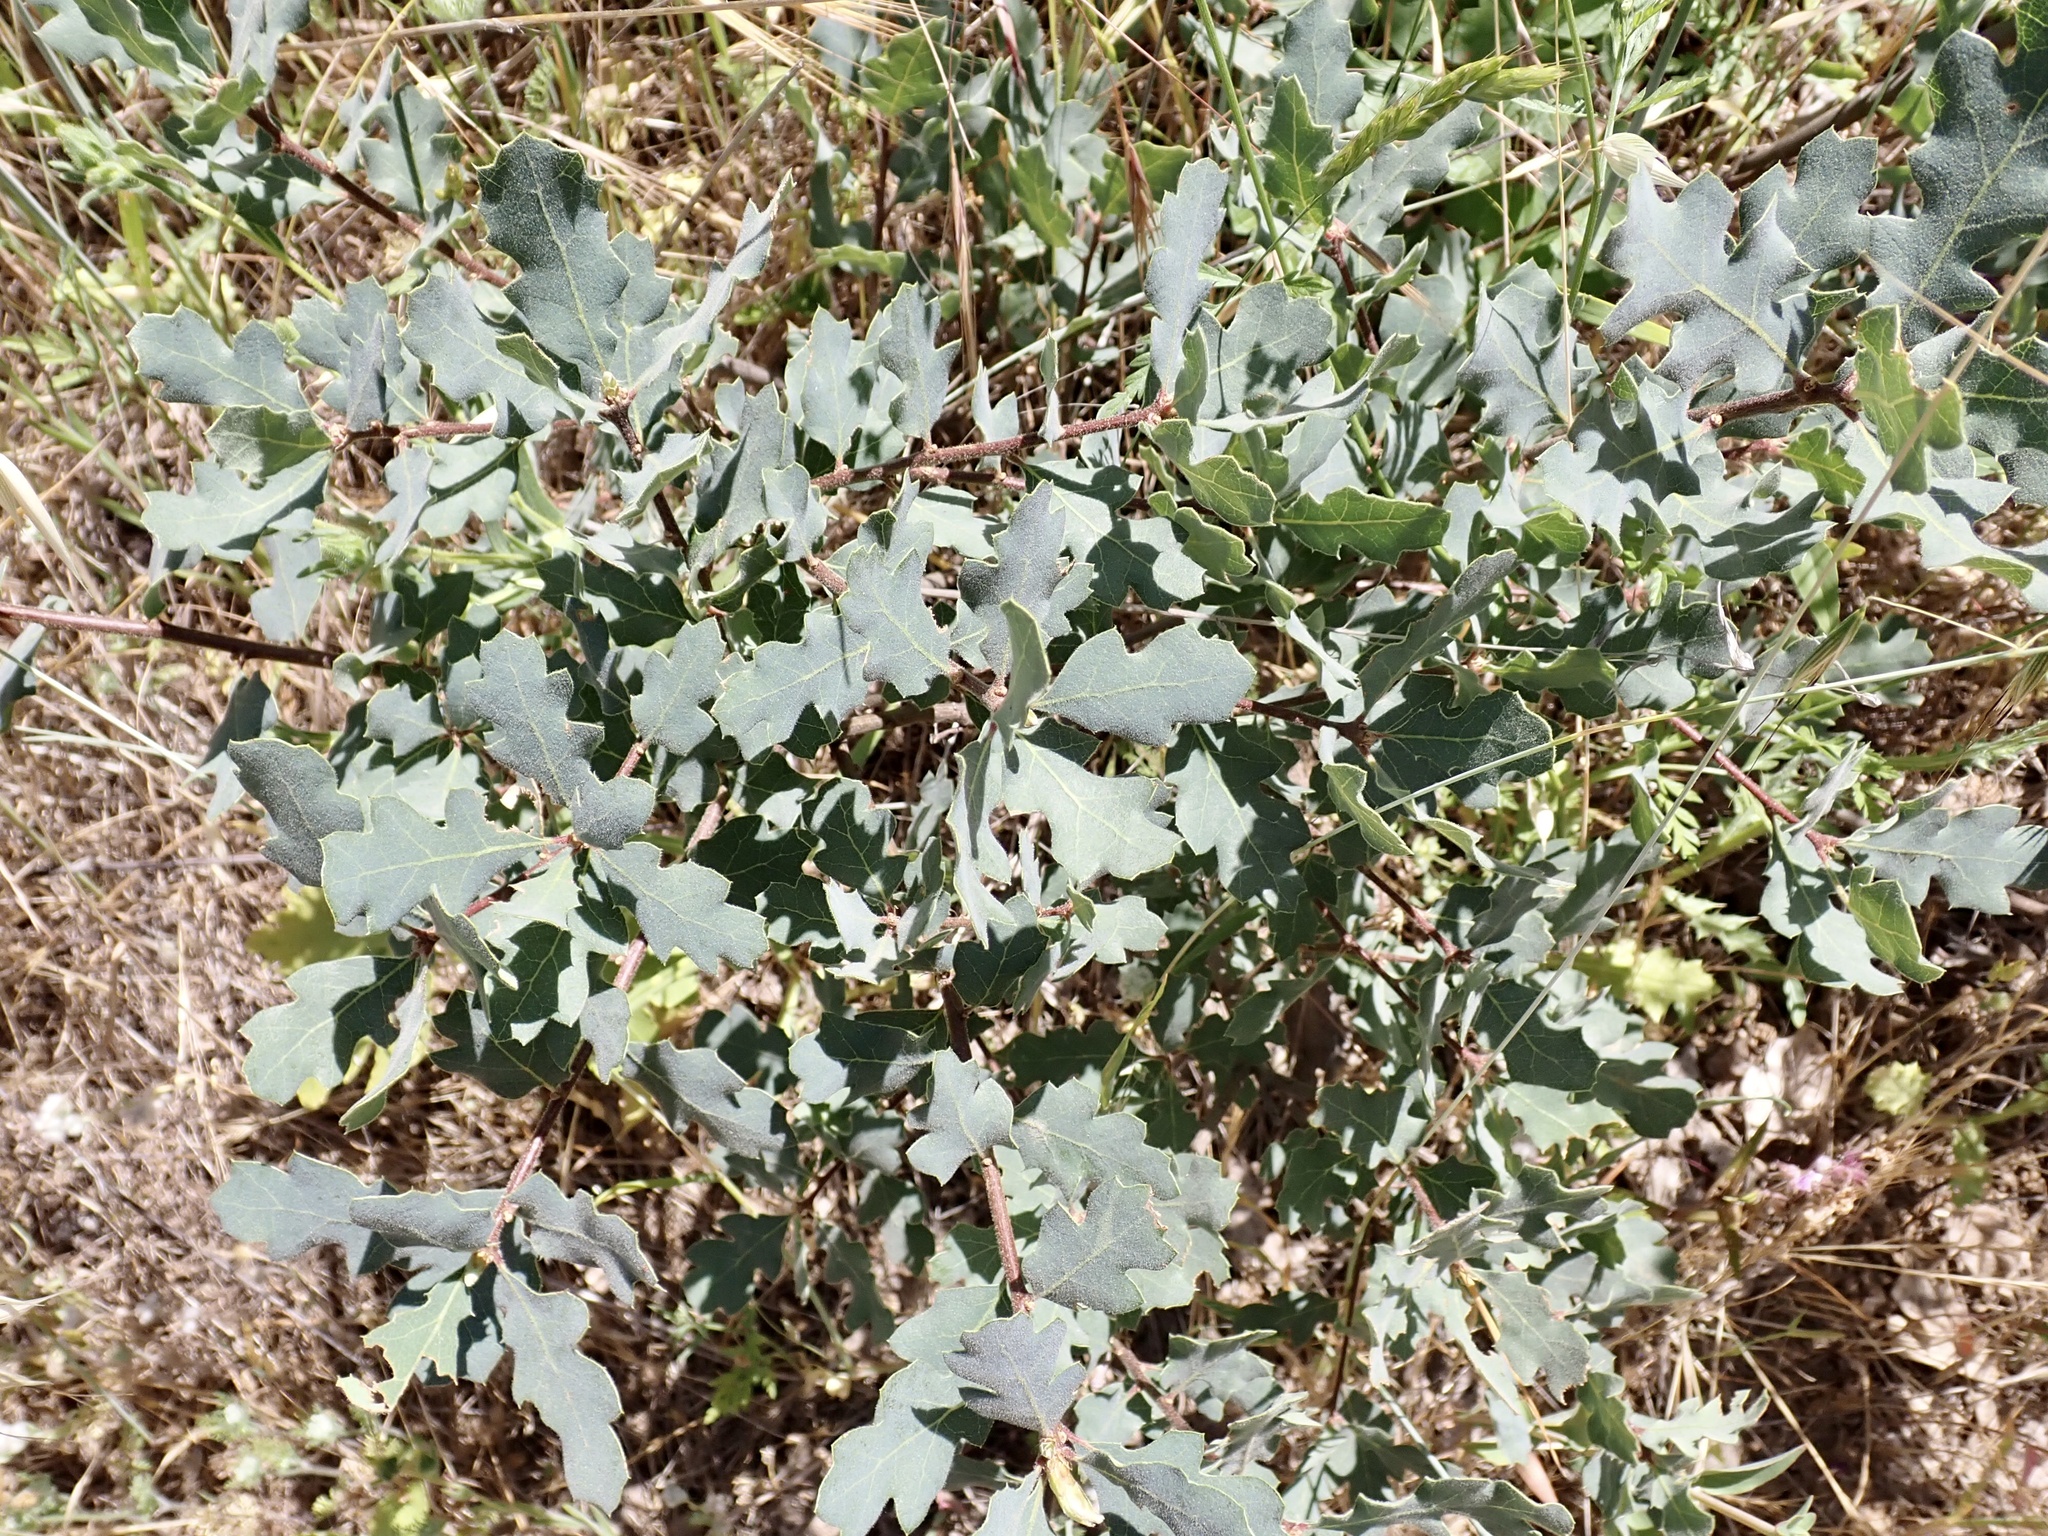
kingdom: Plantae
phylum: Tracheophyta
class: Magnoliopsida
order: Fagales
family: Fagaceae
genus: Quercus
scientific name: Quercus douglasii
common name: Blue oak
